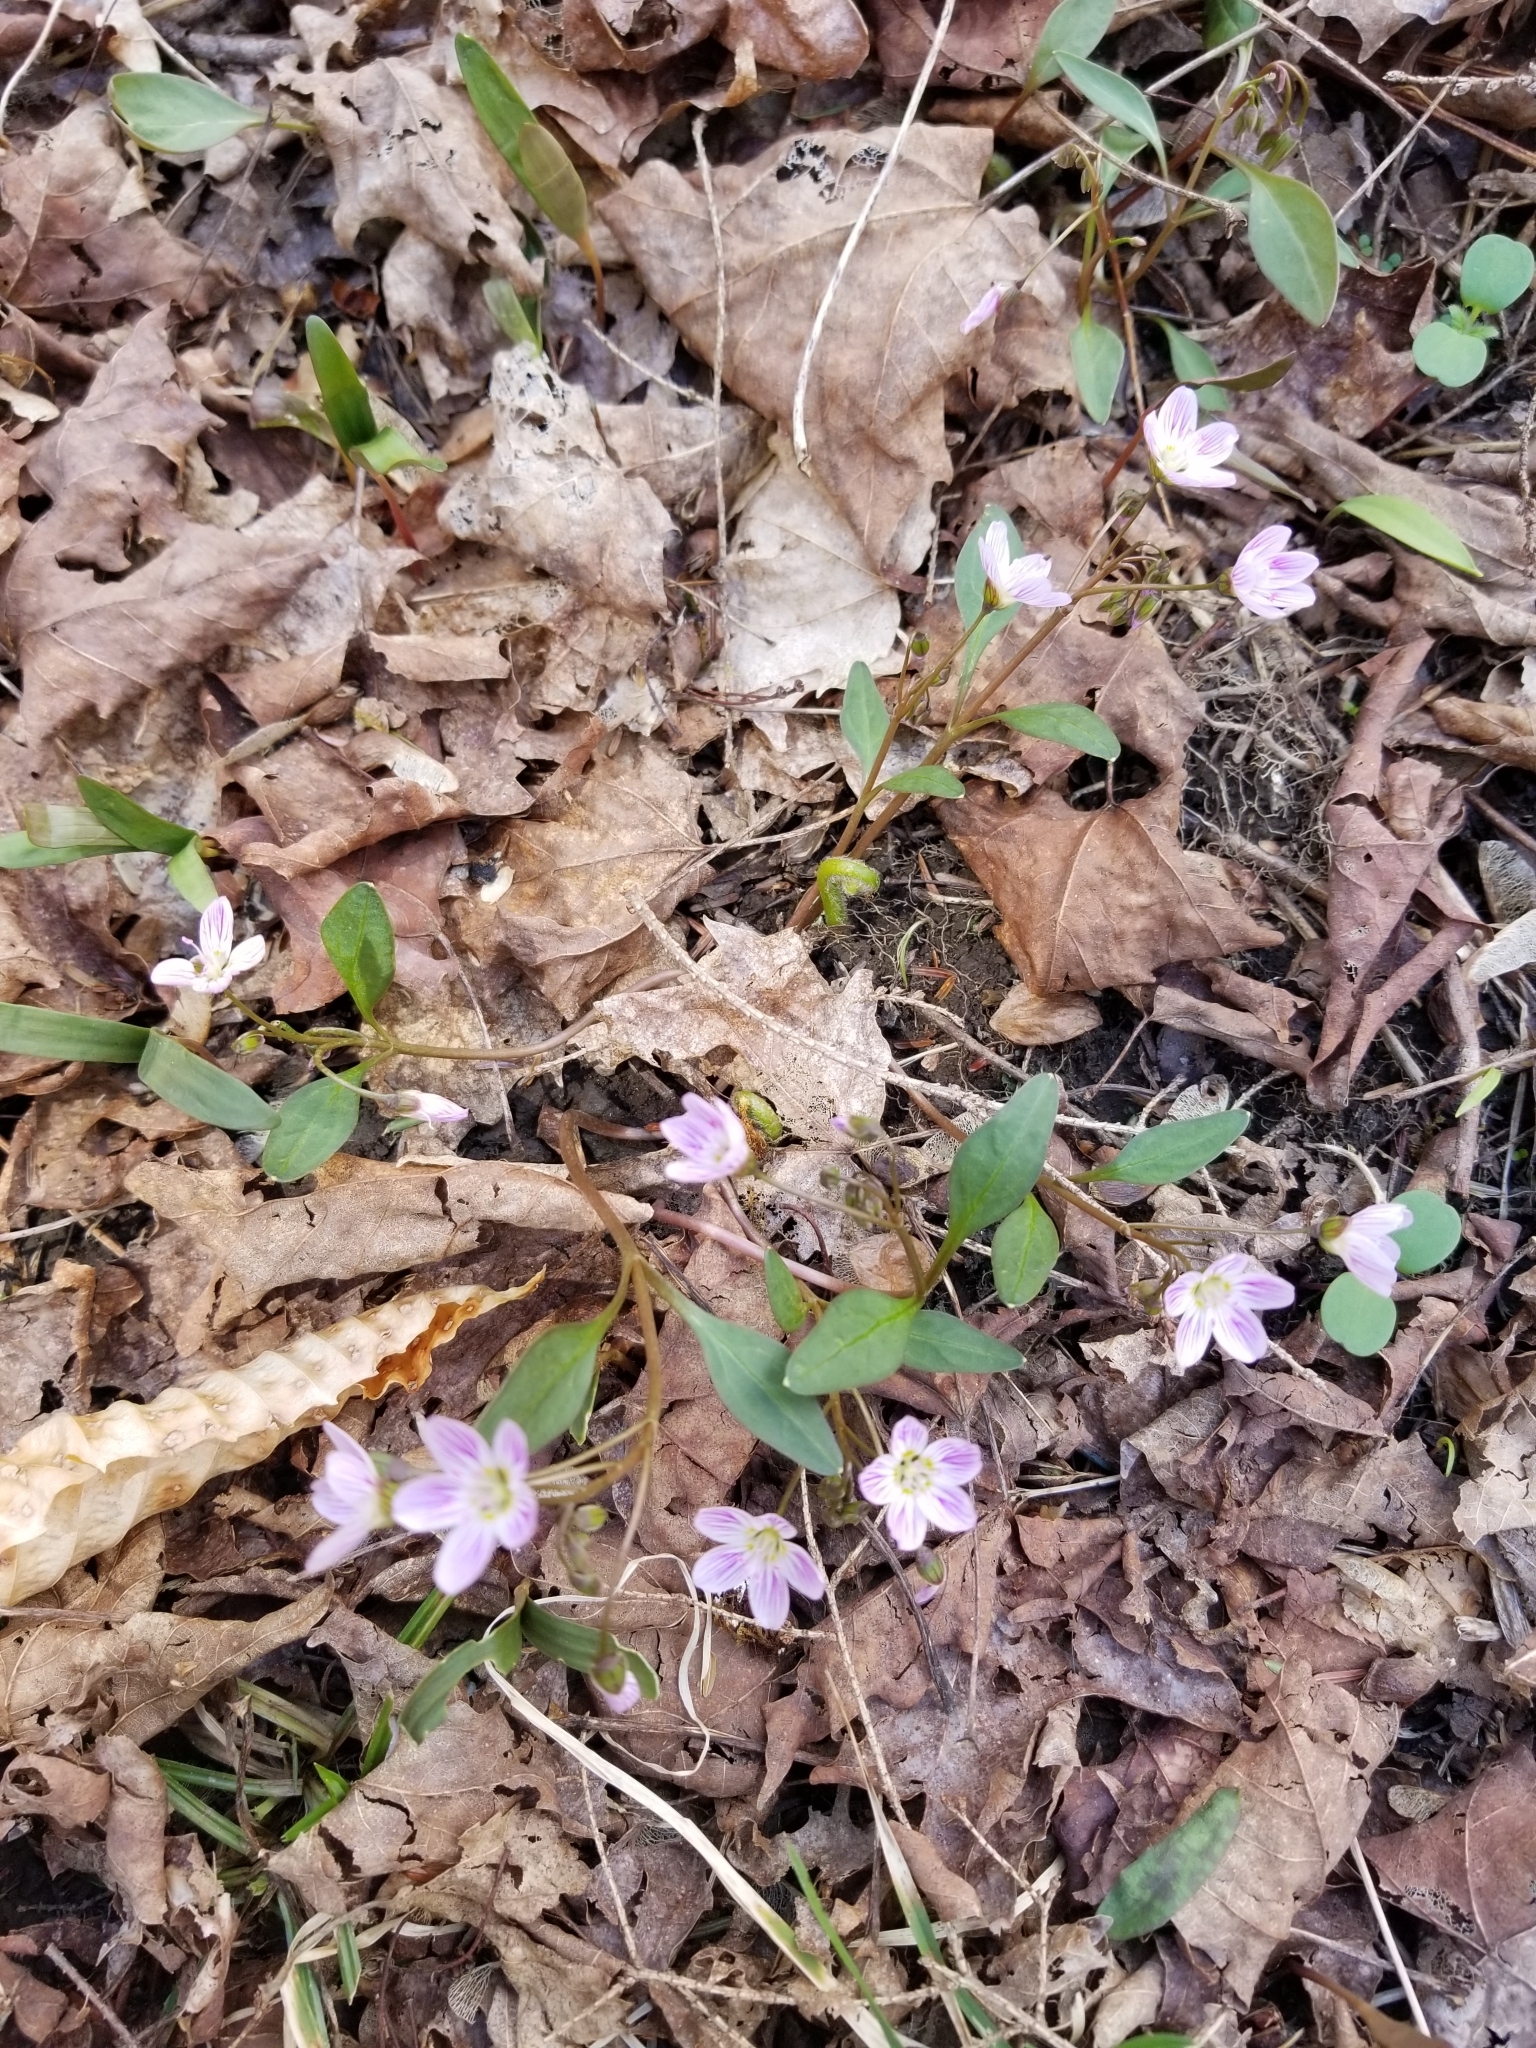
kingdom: Plantae
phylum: Tracheophyta
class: Magnoliopsida
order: Caryophyllales
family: Montiaceae
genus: Claytonia
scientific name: Claytonia caroliniana
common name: Carolina spring beauty
